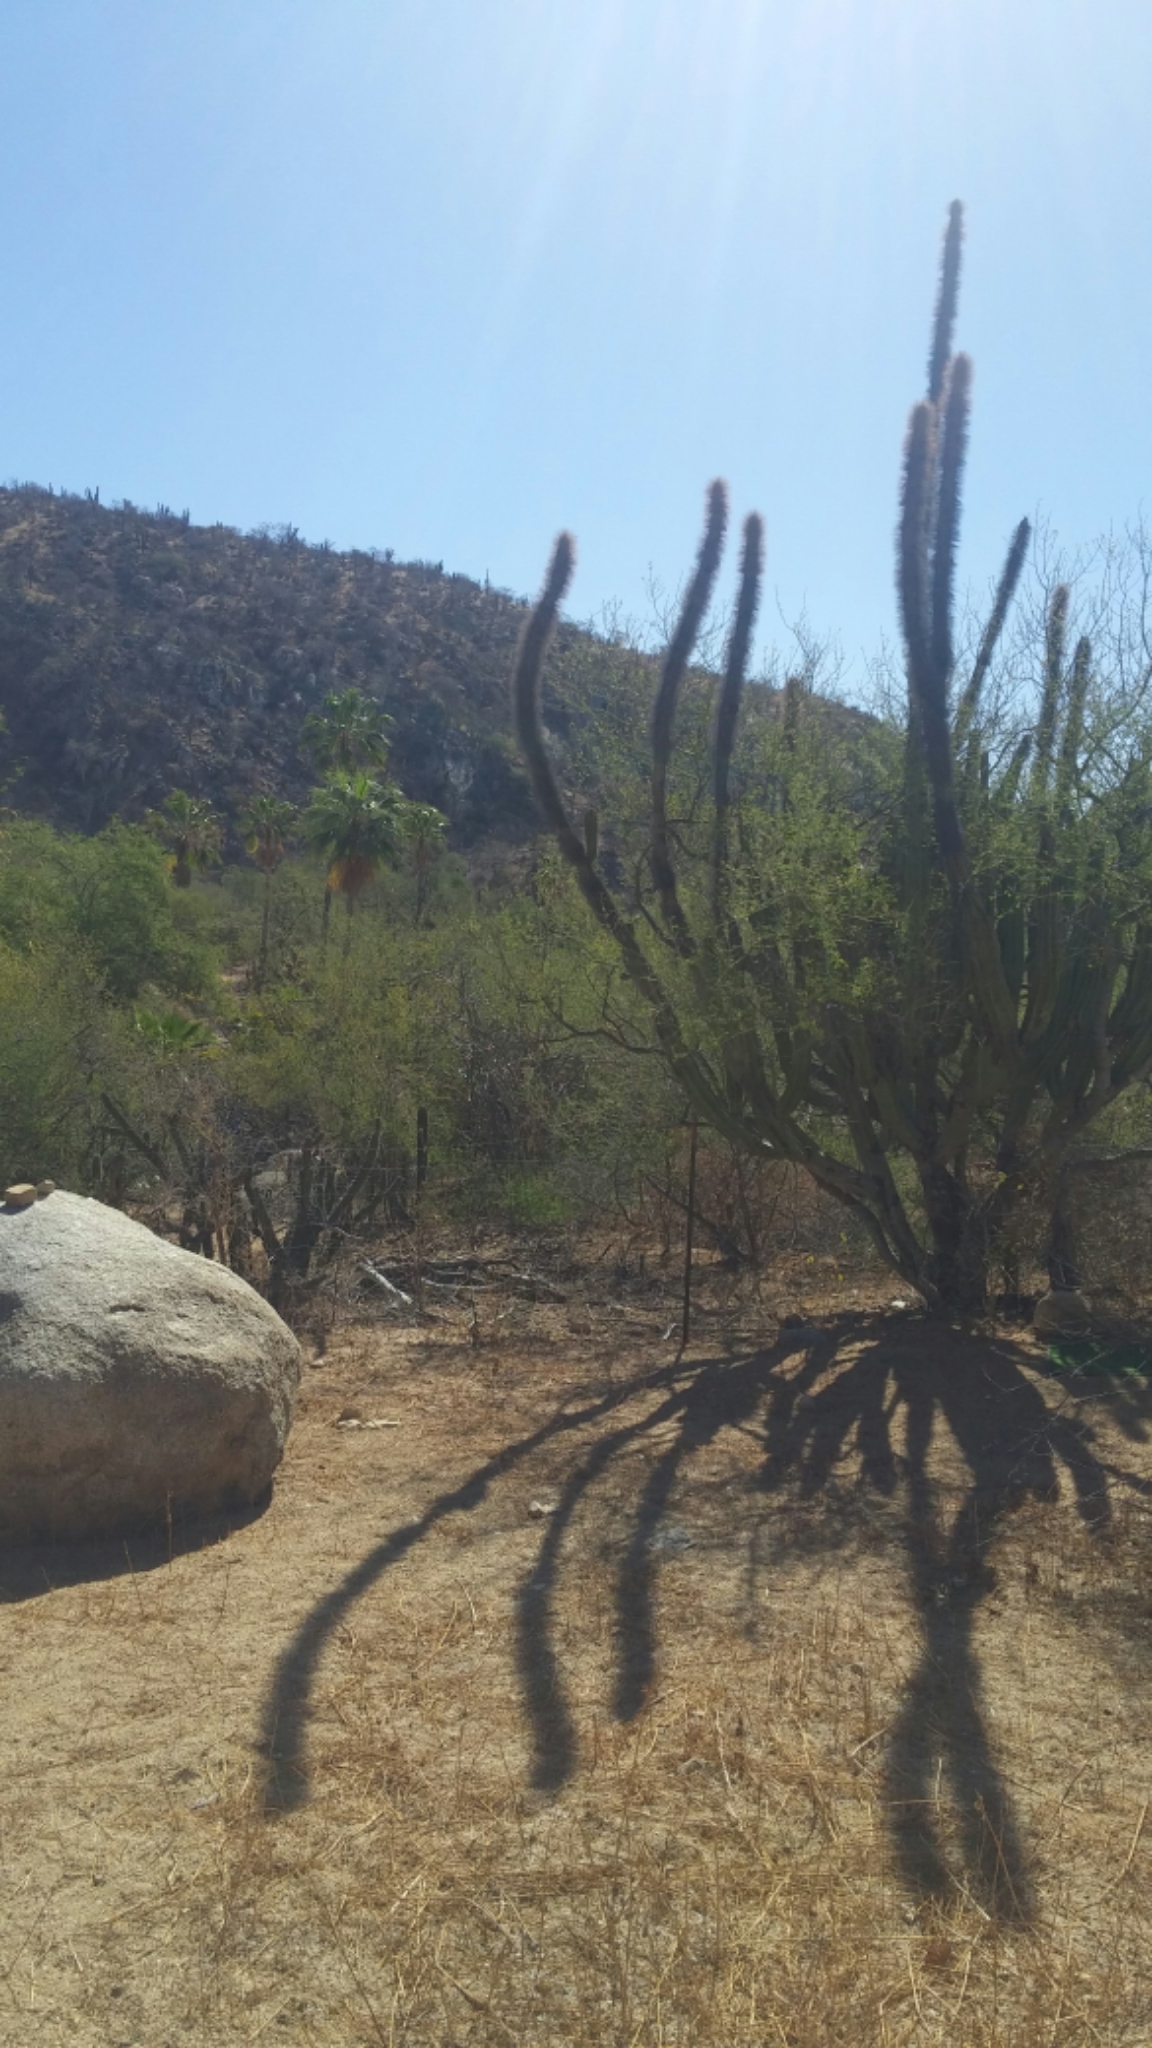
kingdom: Plantae
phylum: Tracheophyta
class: Magnoliopsida
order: Caryophyllales
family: Cactaceae
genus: Pachycereus
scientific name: Pachycereus schottii
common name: Senita cactus
